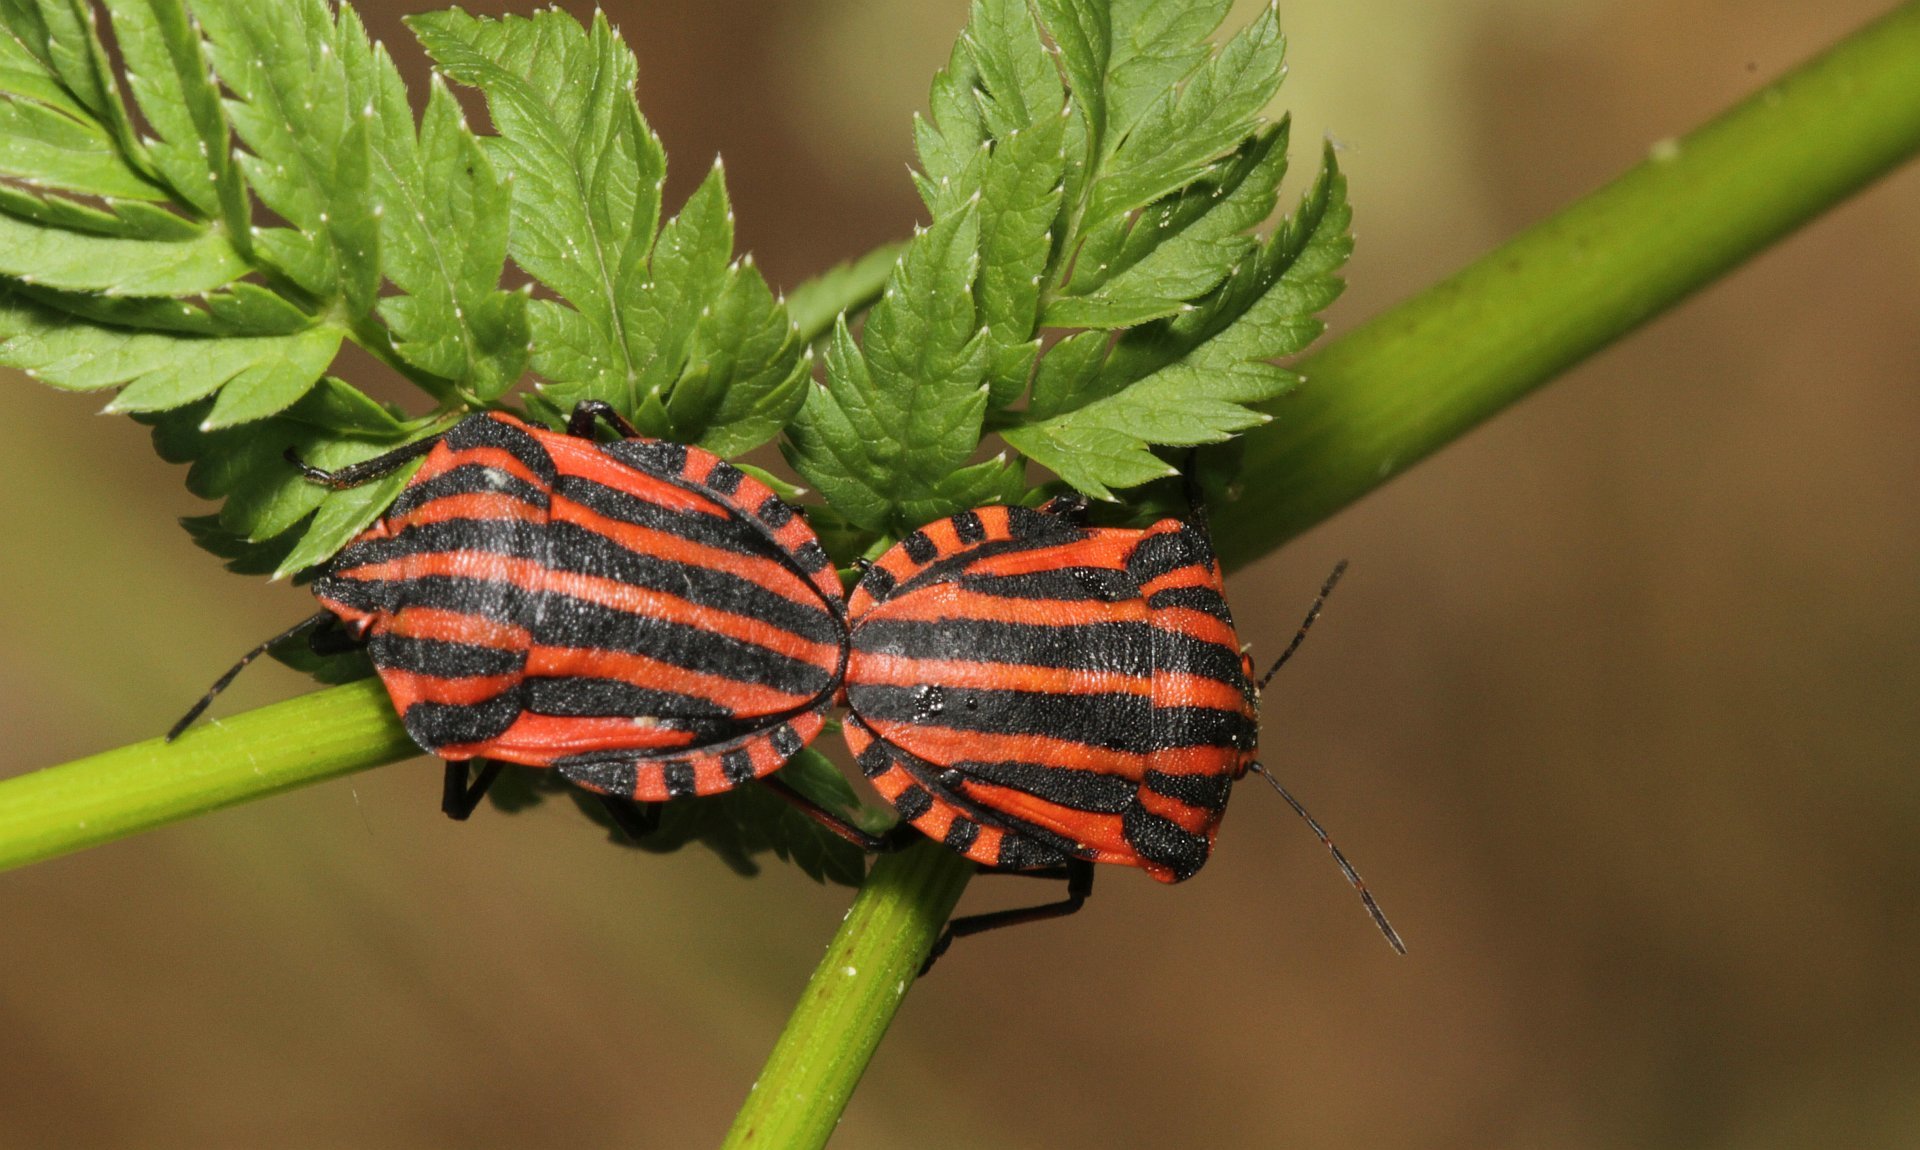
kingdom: Animalia
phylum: Arthropoda
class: Insecta
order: Hemiptera
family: Pentatomidae
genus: Graphosoma
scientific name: Graphosoma italicum
